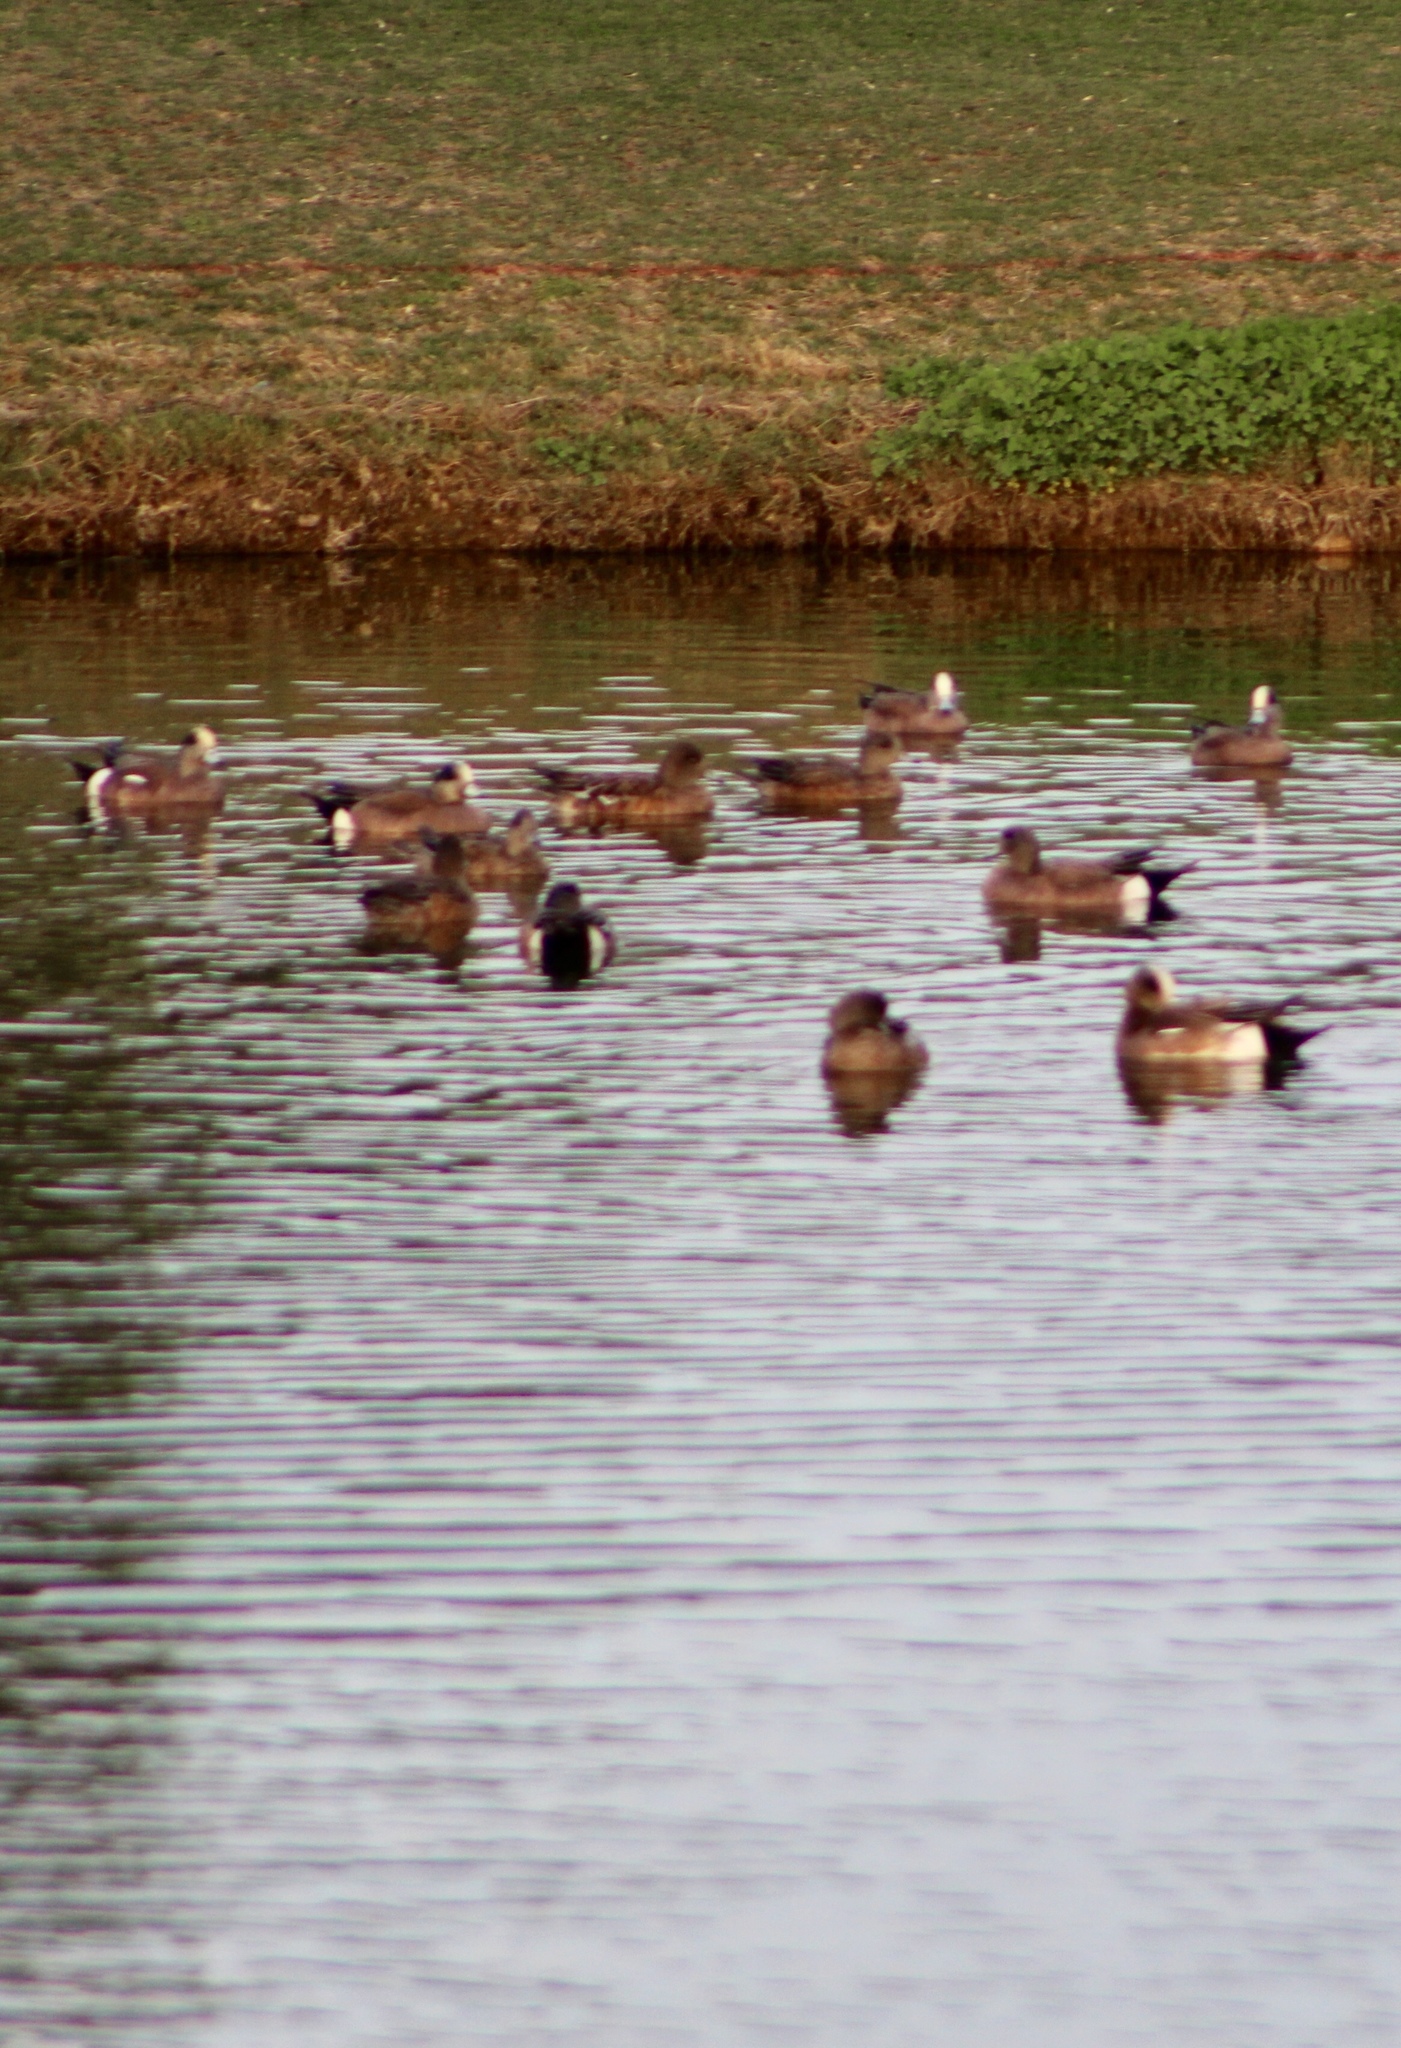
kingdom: Animalia
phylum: Chordata
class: Aves
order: Anseriformes
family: Anatidae
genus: Mareca
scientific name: Mareca americana
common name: American wigeon
